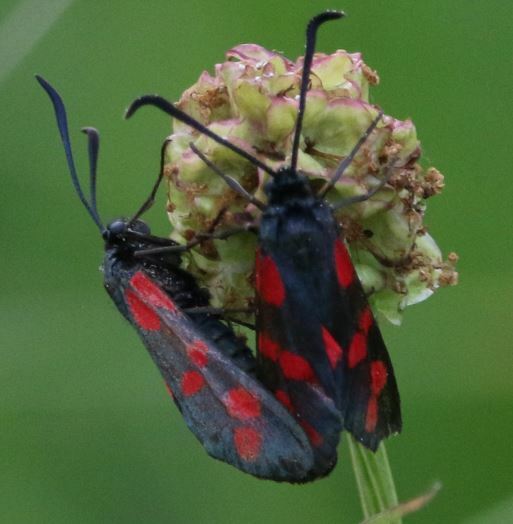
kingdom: Animalia
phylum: Arthropoda
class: Insecta
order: Lepidoptera
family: Zygaenidae
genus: Zygaena
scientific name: Zygaena filipendulae
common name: Six-spot burnet
